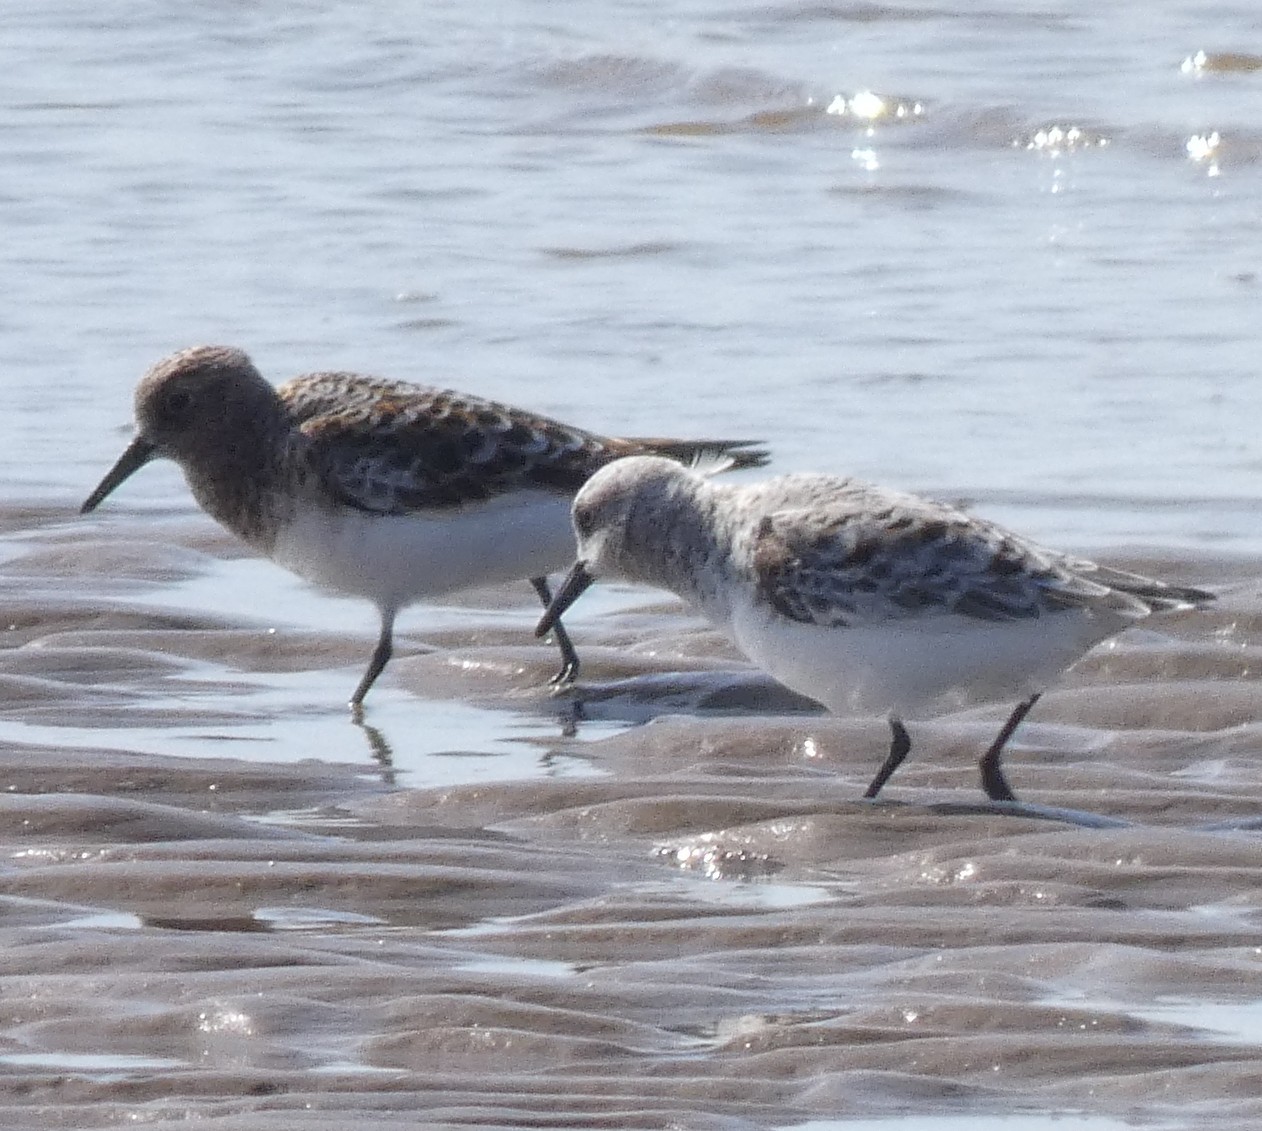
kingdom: Animalia
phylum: Chordata
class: Aves
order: Charadriiformes
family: Scolopacidae
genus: Calidris
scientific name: Calidris alba
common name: Sanderling
